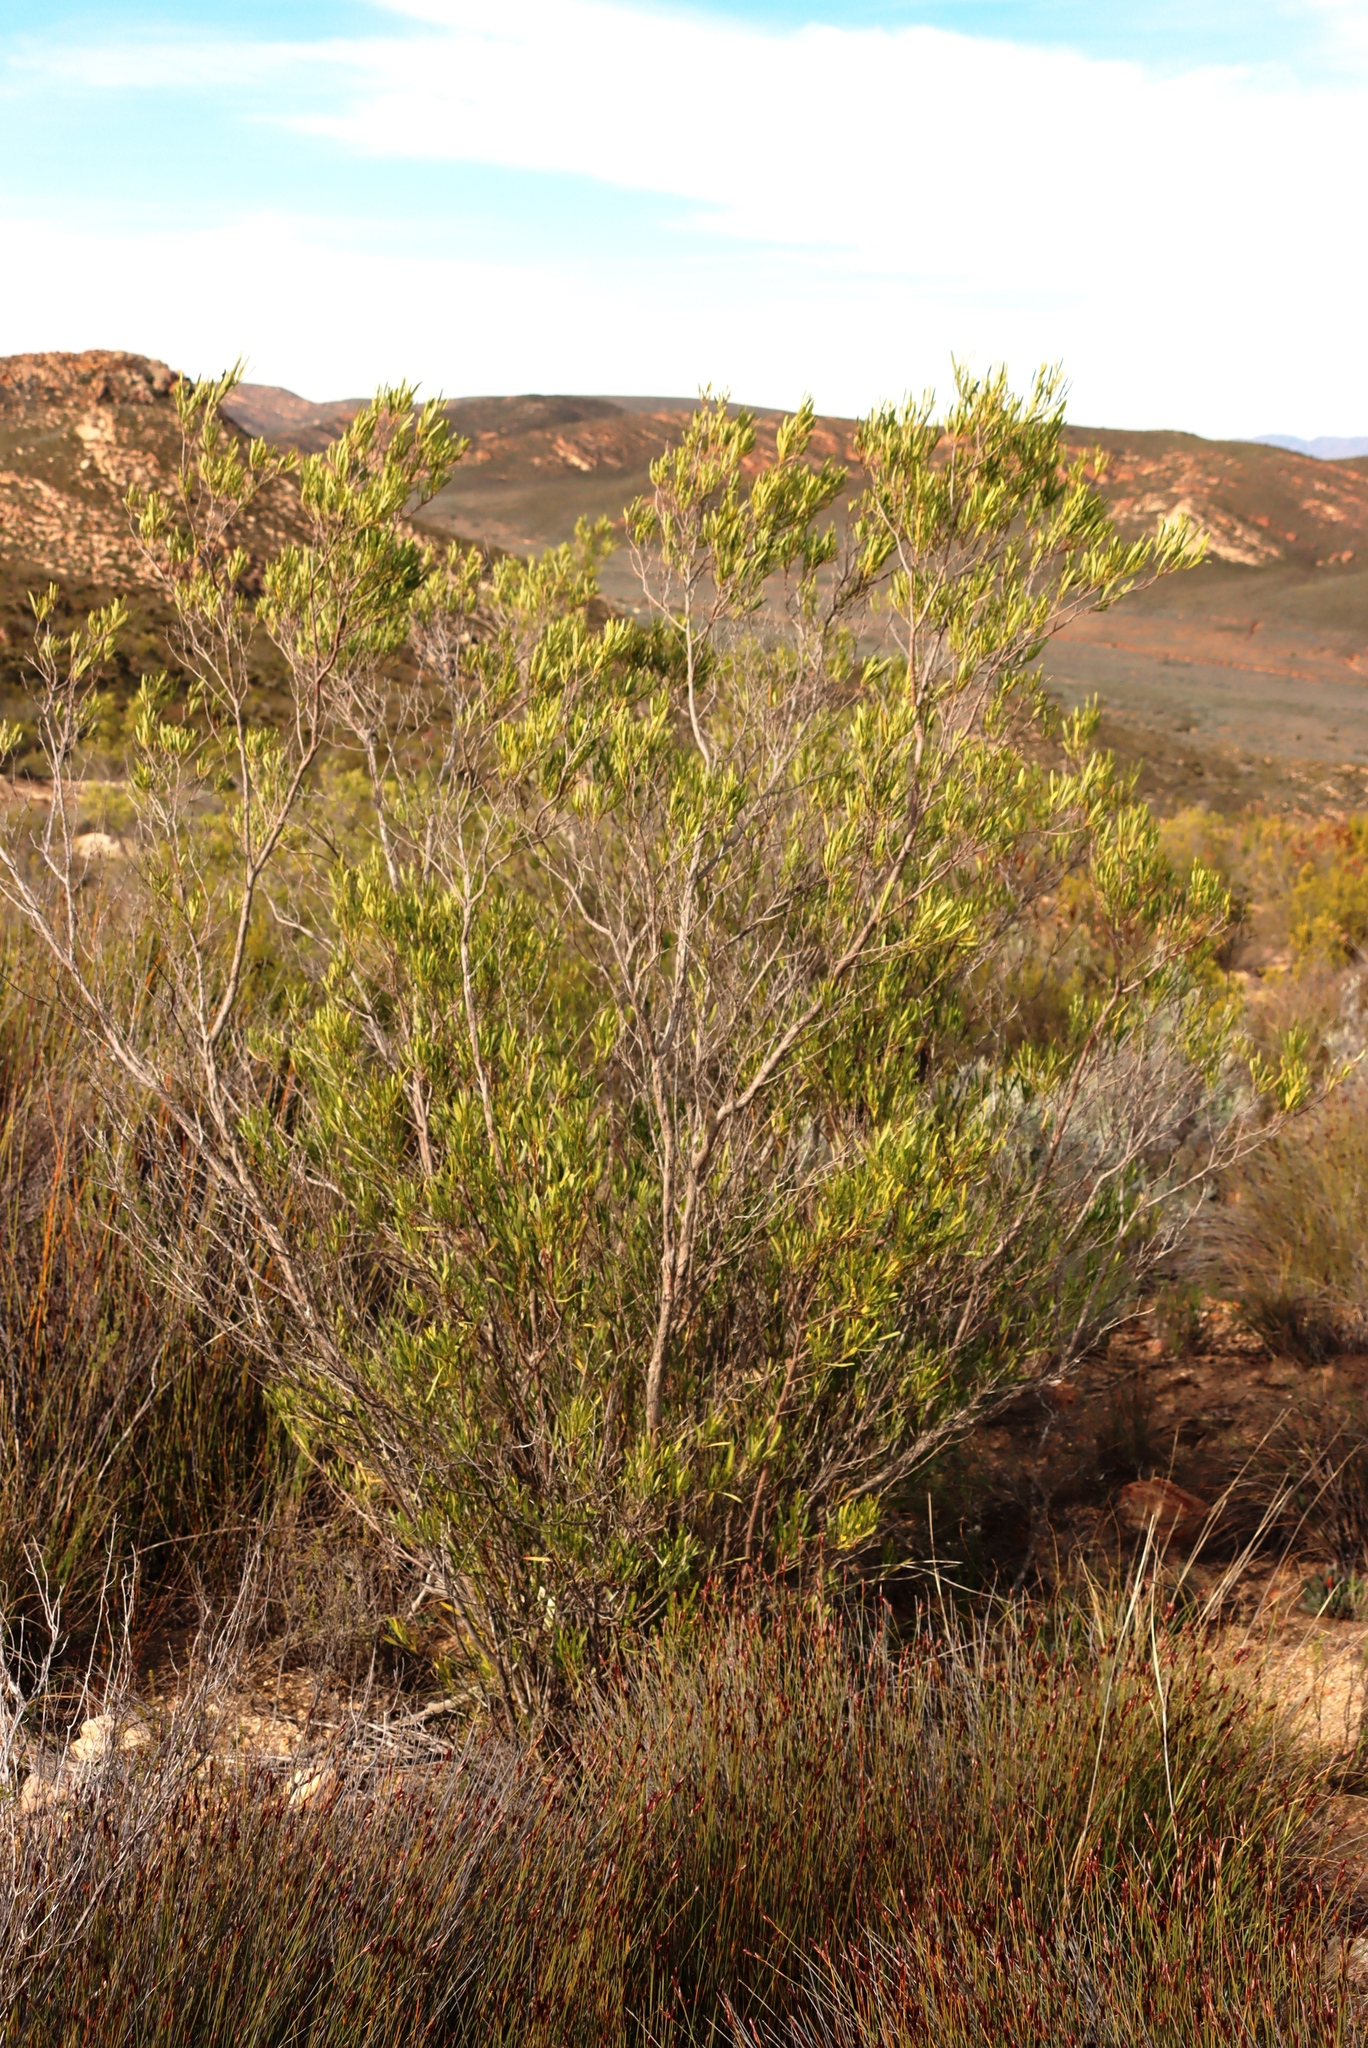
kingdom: Plantae
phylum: Tracheophyta
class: Magnoliopsida
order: Sapindales
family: Sapindaceae
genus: Dodonaea
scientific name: Dodonaea viscosa
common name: Hopbush
